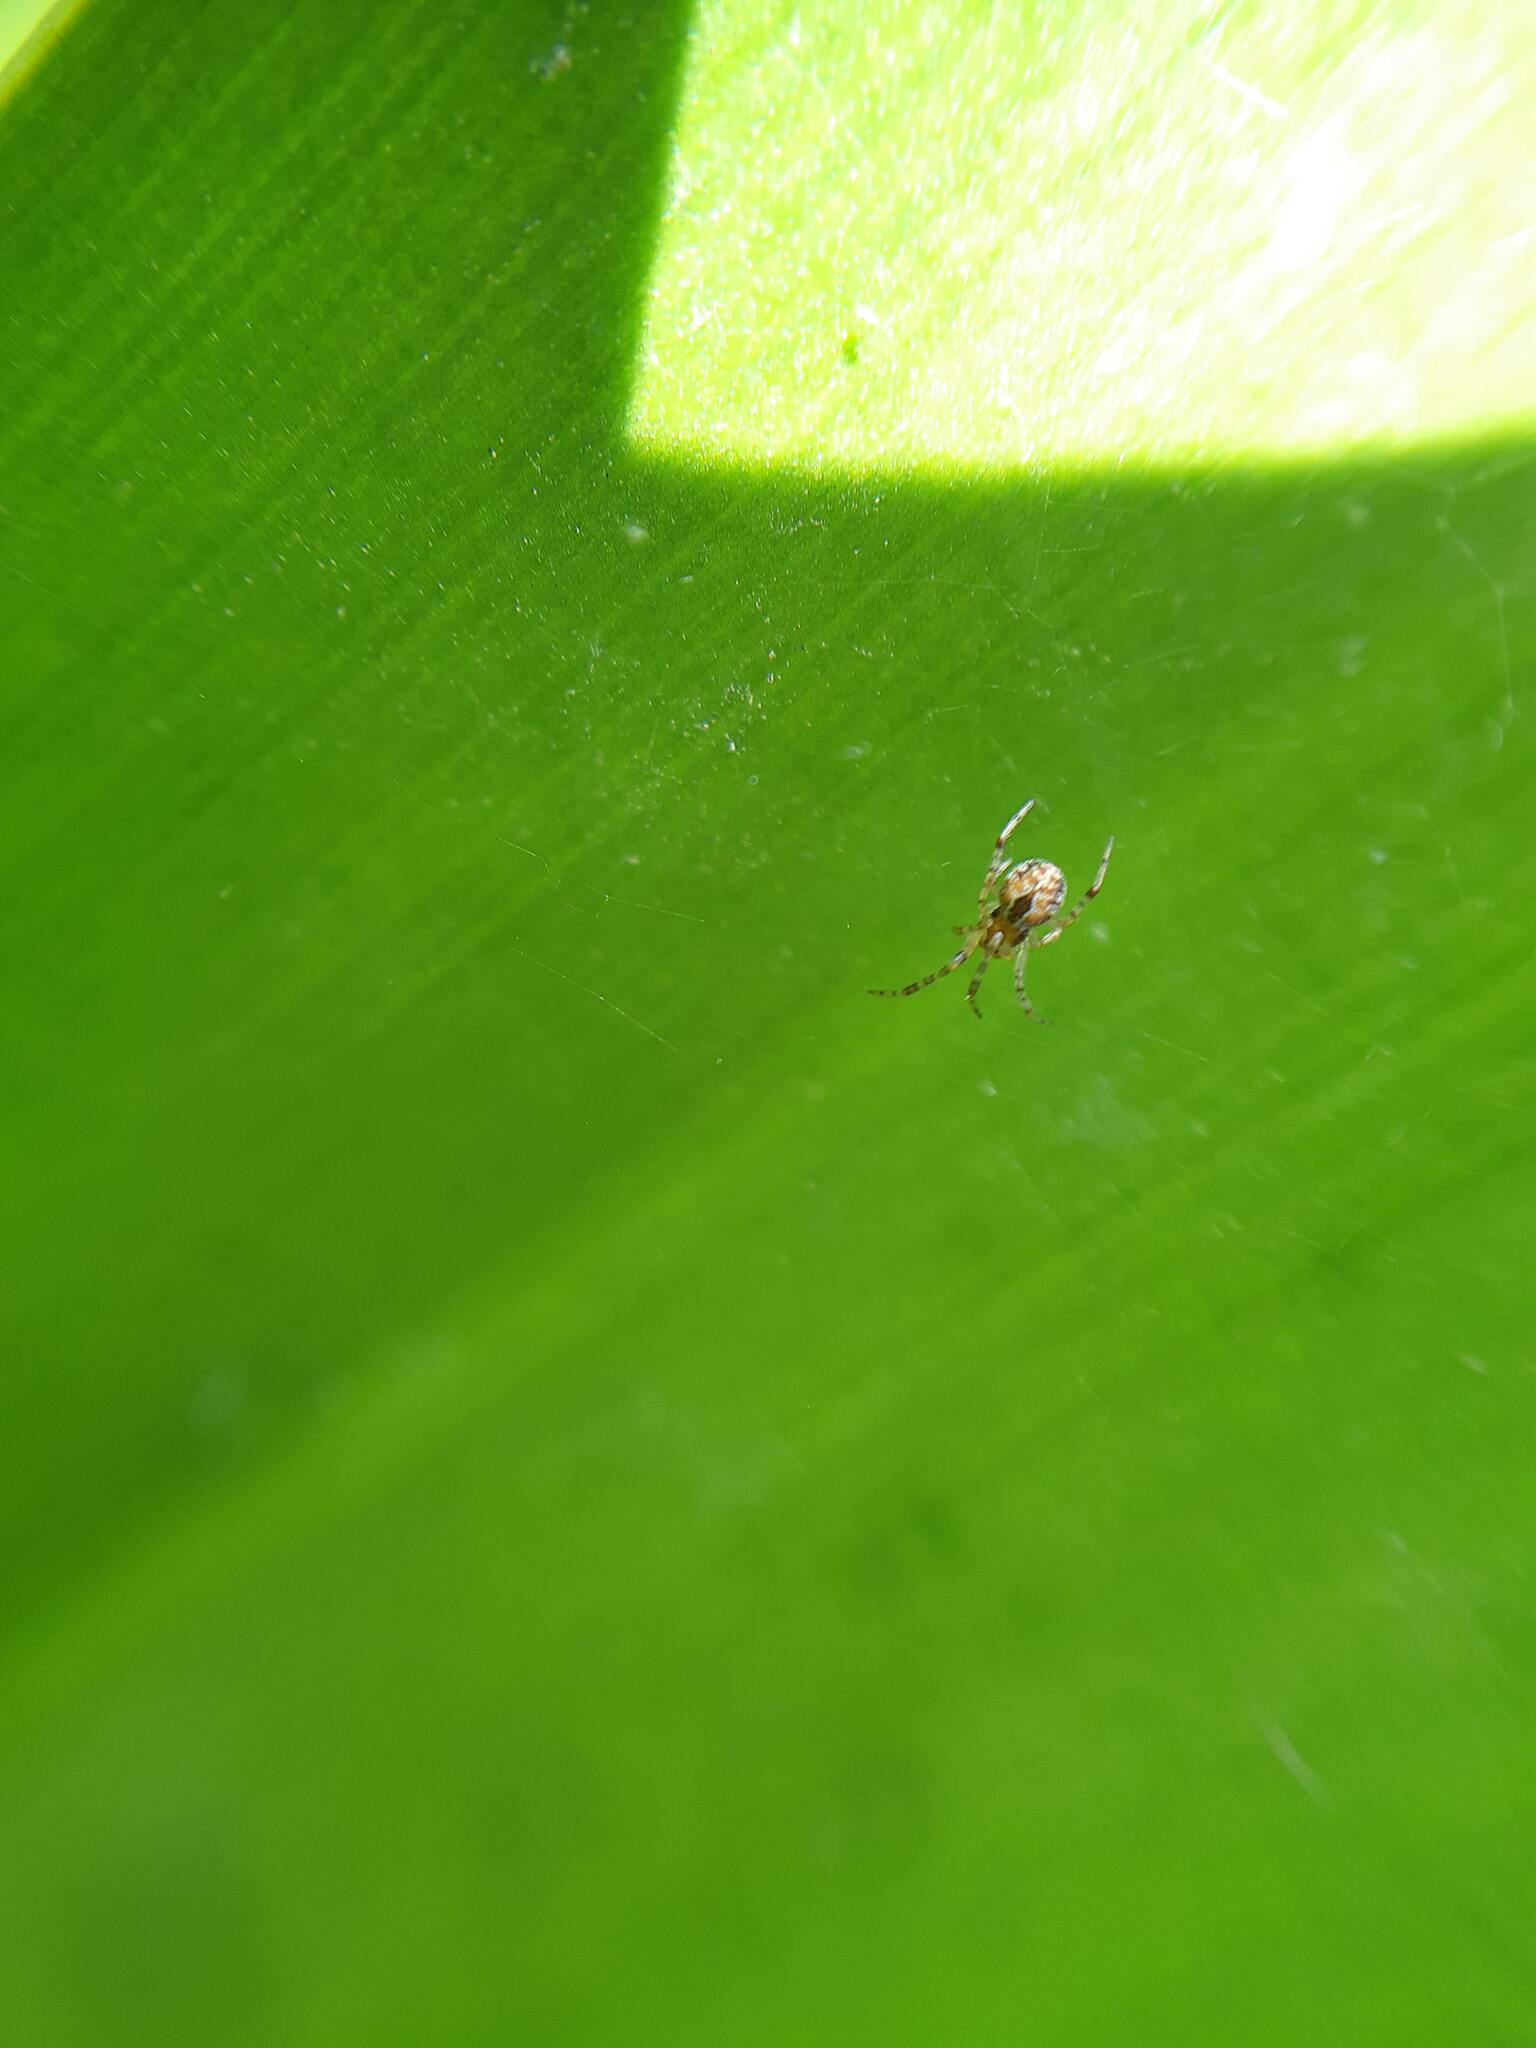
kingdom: Animalia
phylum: Arthropoda
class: Arachnida
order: Araneae
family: Theridiidae
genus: Cryptachaea
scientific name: Cryptachaea veruculata
